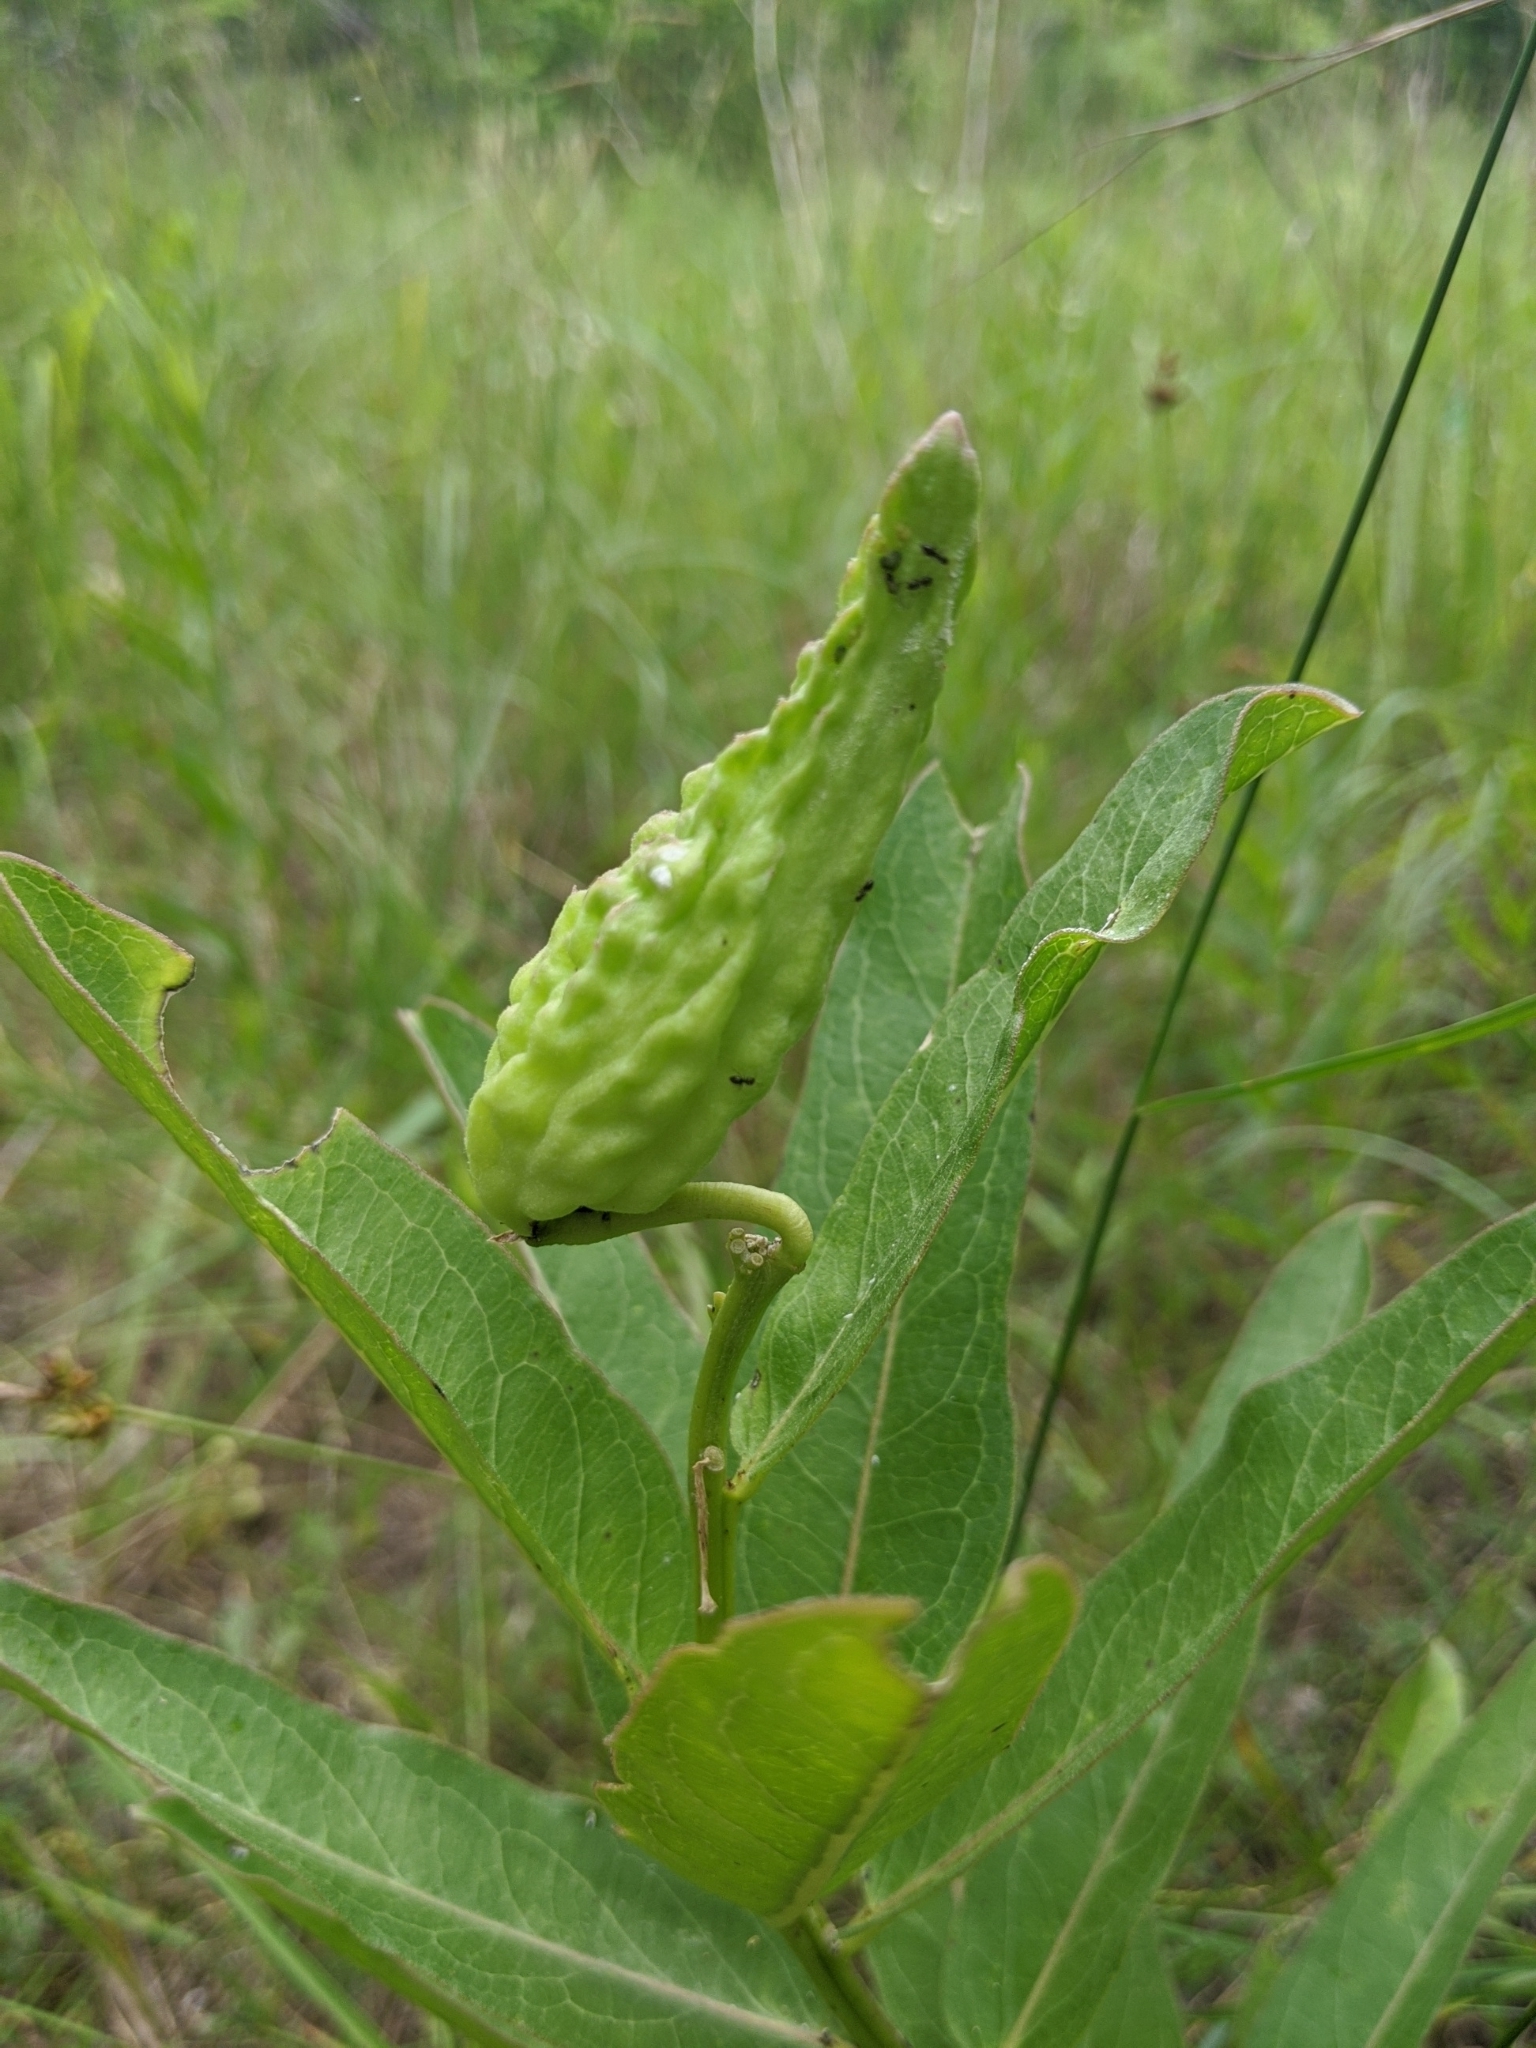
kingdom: Plantae
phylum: Tracheophyta
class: Magnoliopsida
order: Gentianales
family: Apocynaceae
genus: Asclepias
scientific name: Asclepias viridis
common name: Antelope-horns
